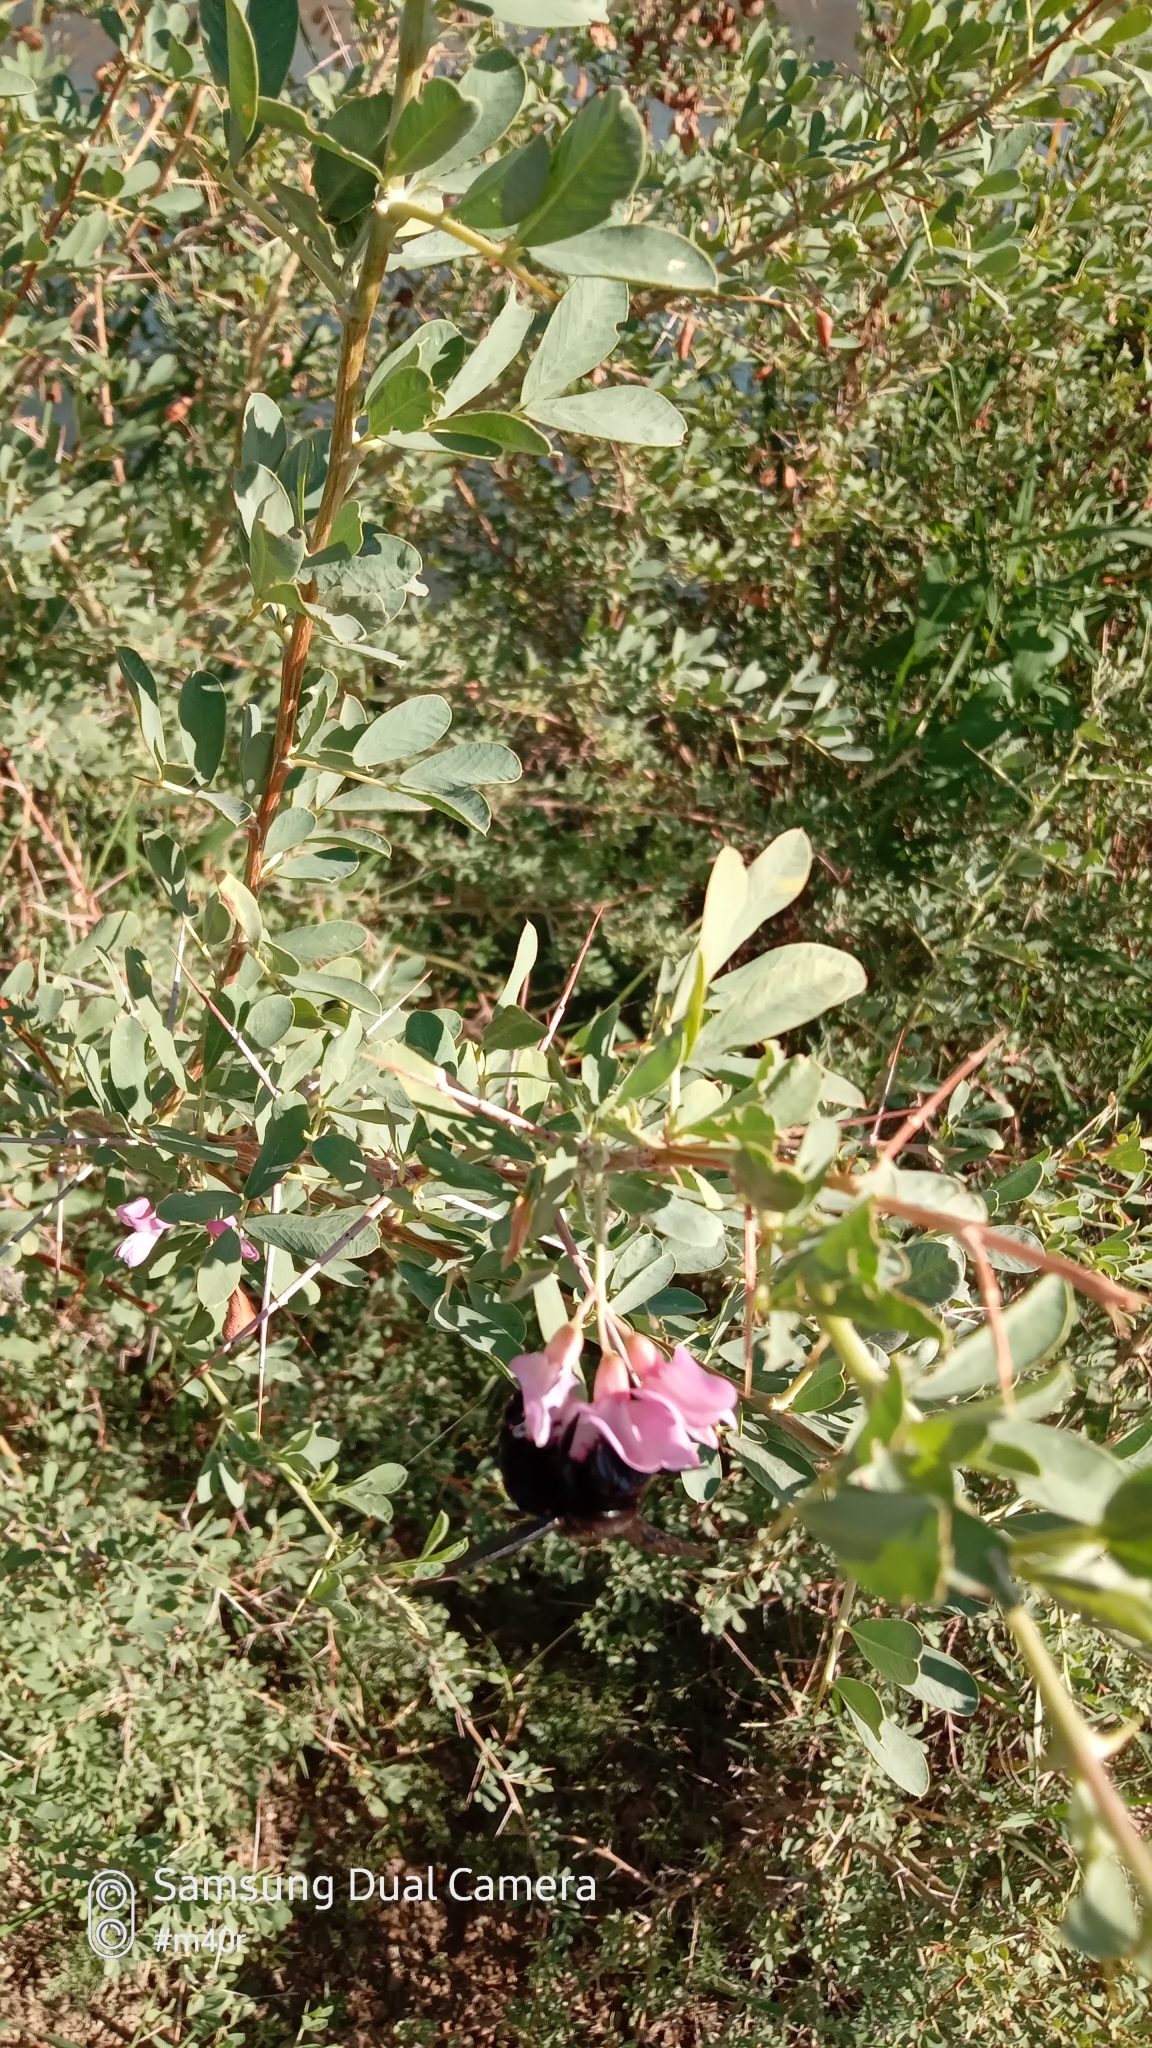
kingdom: Plantae
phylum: Tracheophyta
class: Magnoliopsida
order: Fabales
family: Fabaceae
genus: Caragana
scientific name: Caragana halodendron
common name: Siberian salt-tree
